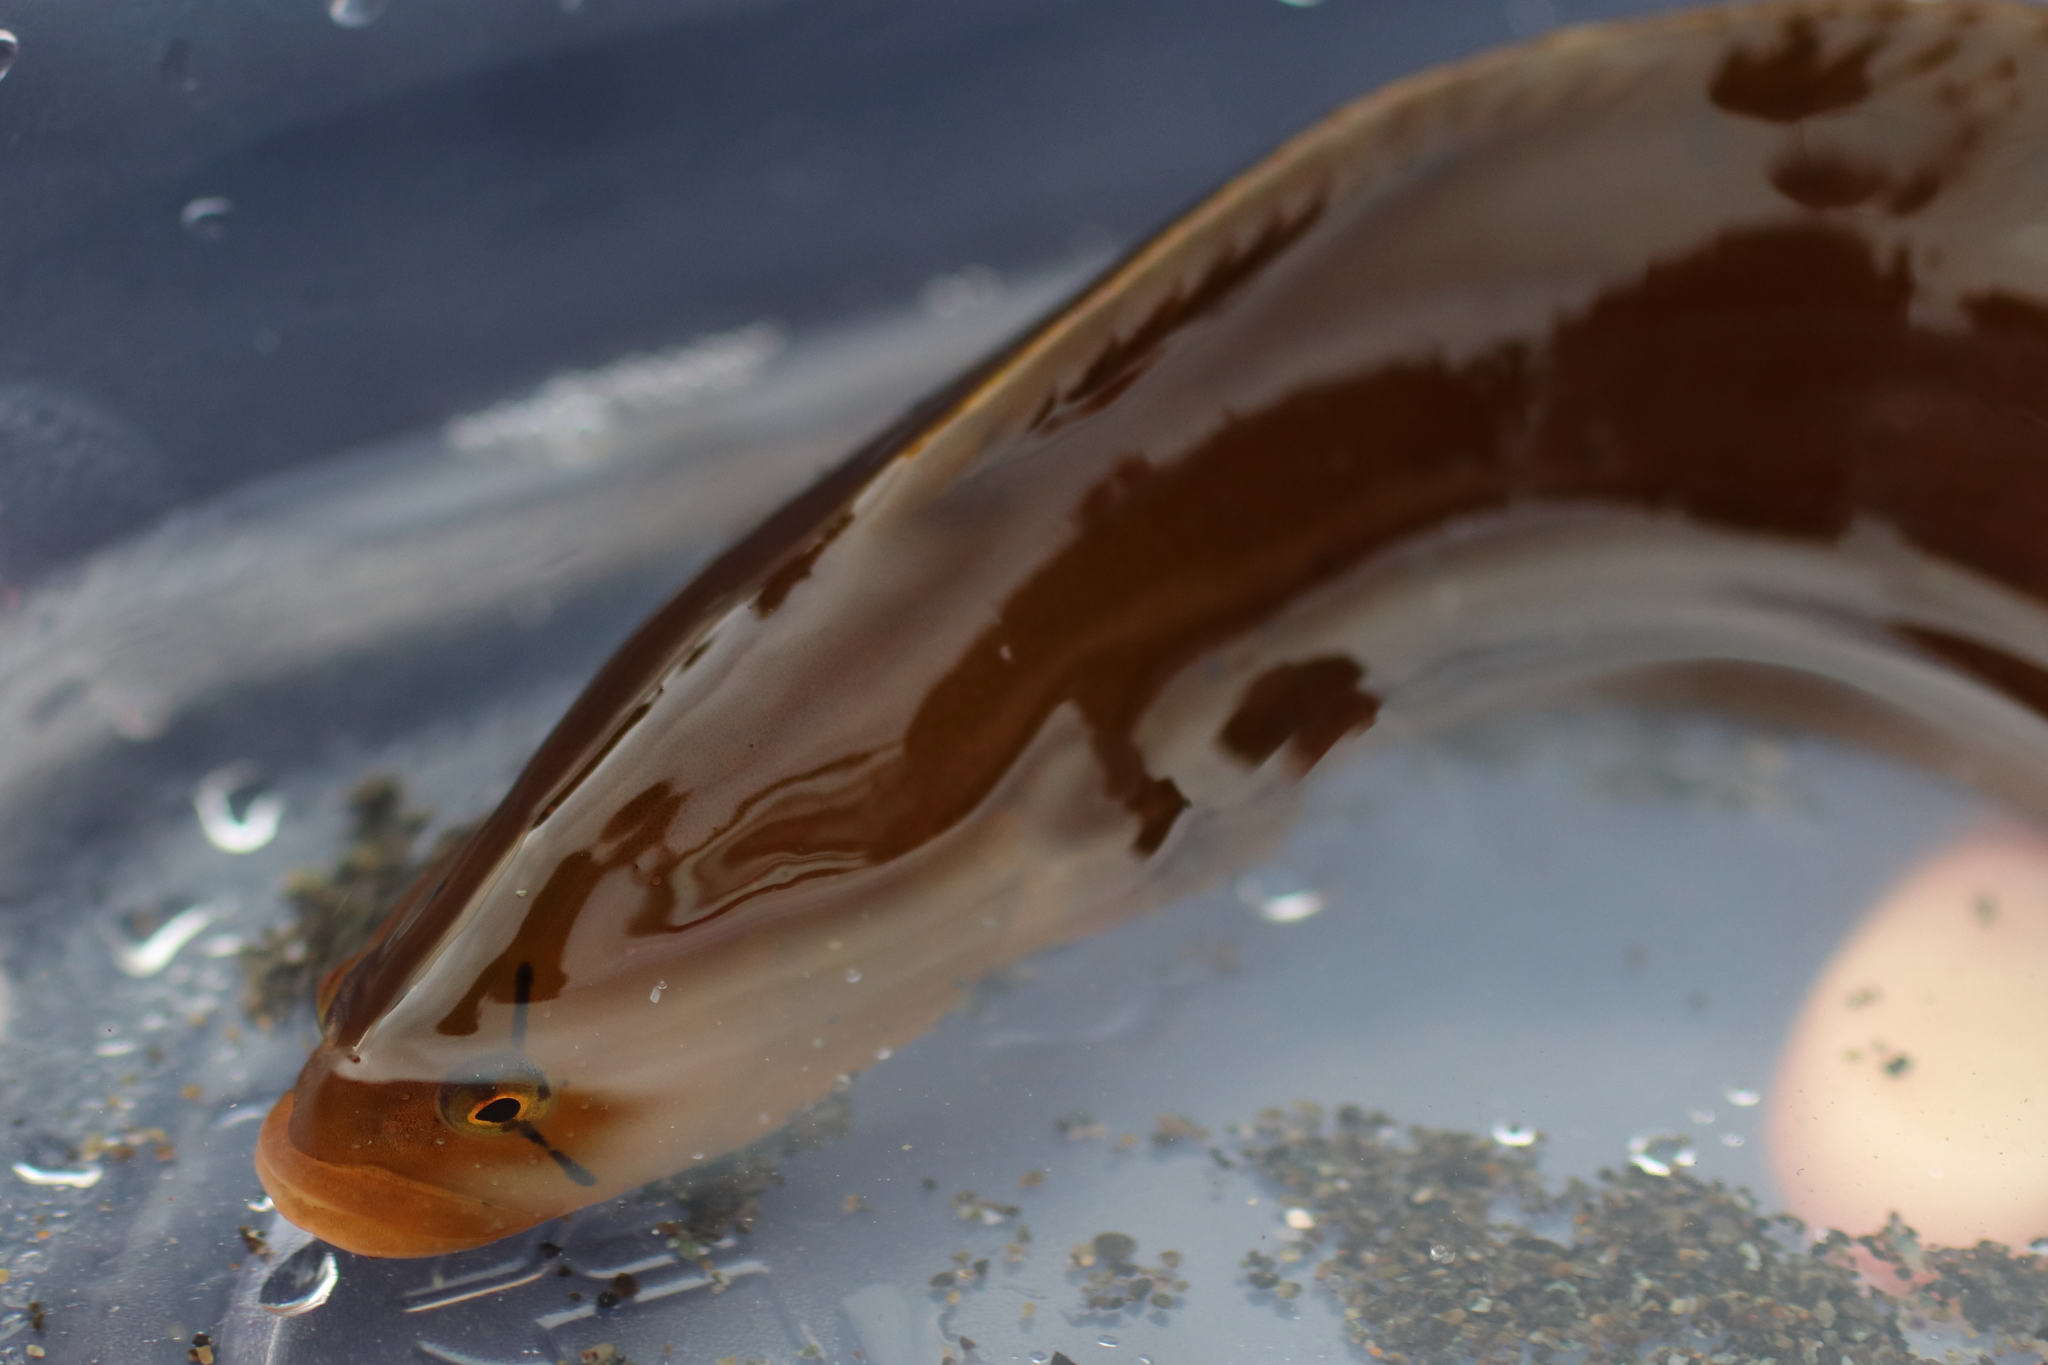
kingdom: Animalia
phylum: Chordata
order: Perciformes
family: Pholidae
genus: Apodichthys
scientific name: Apodichthys flavidus
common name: Penpoint gunnel
